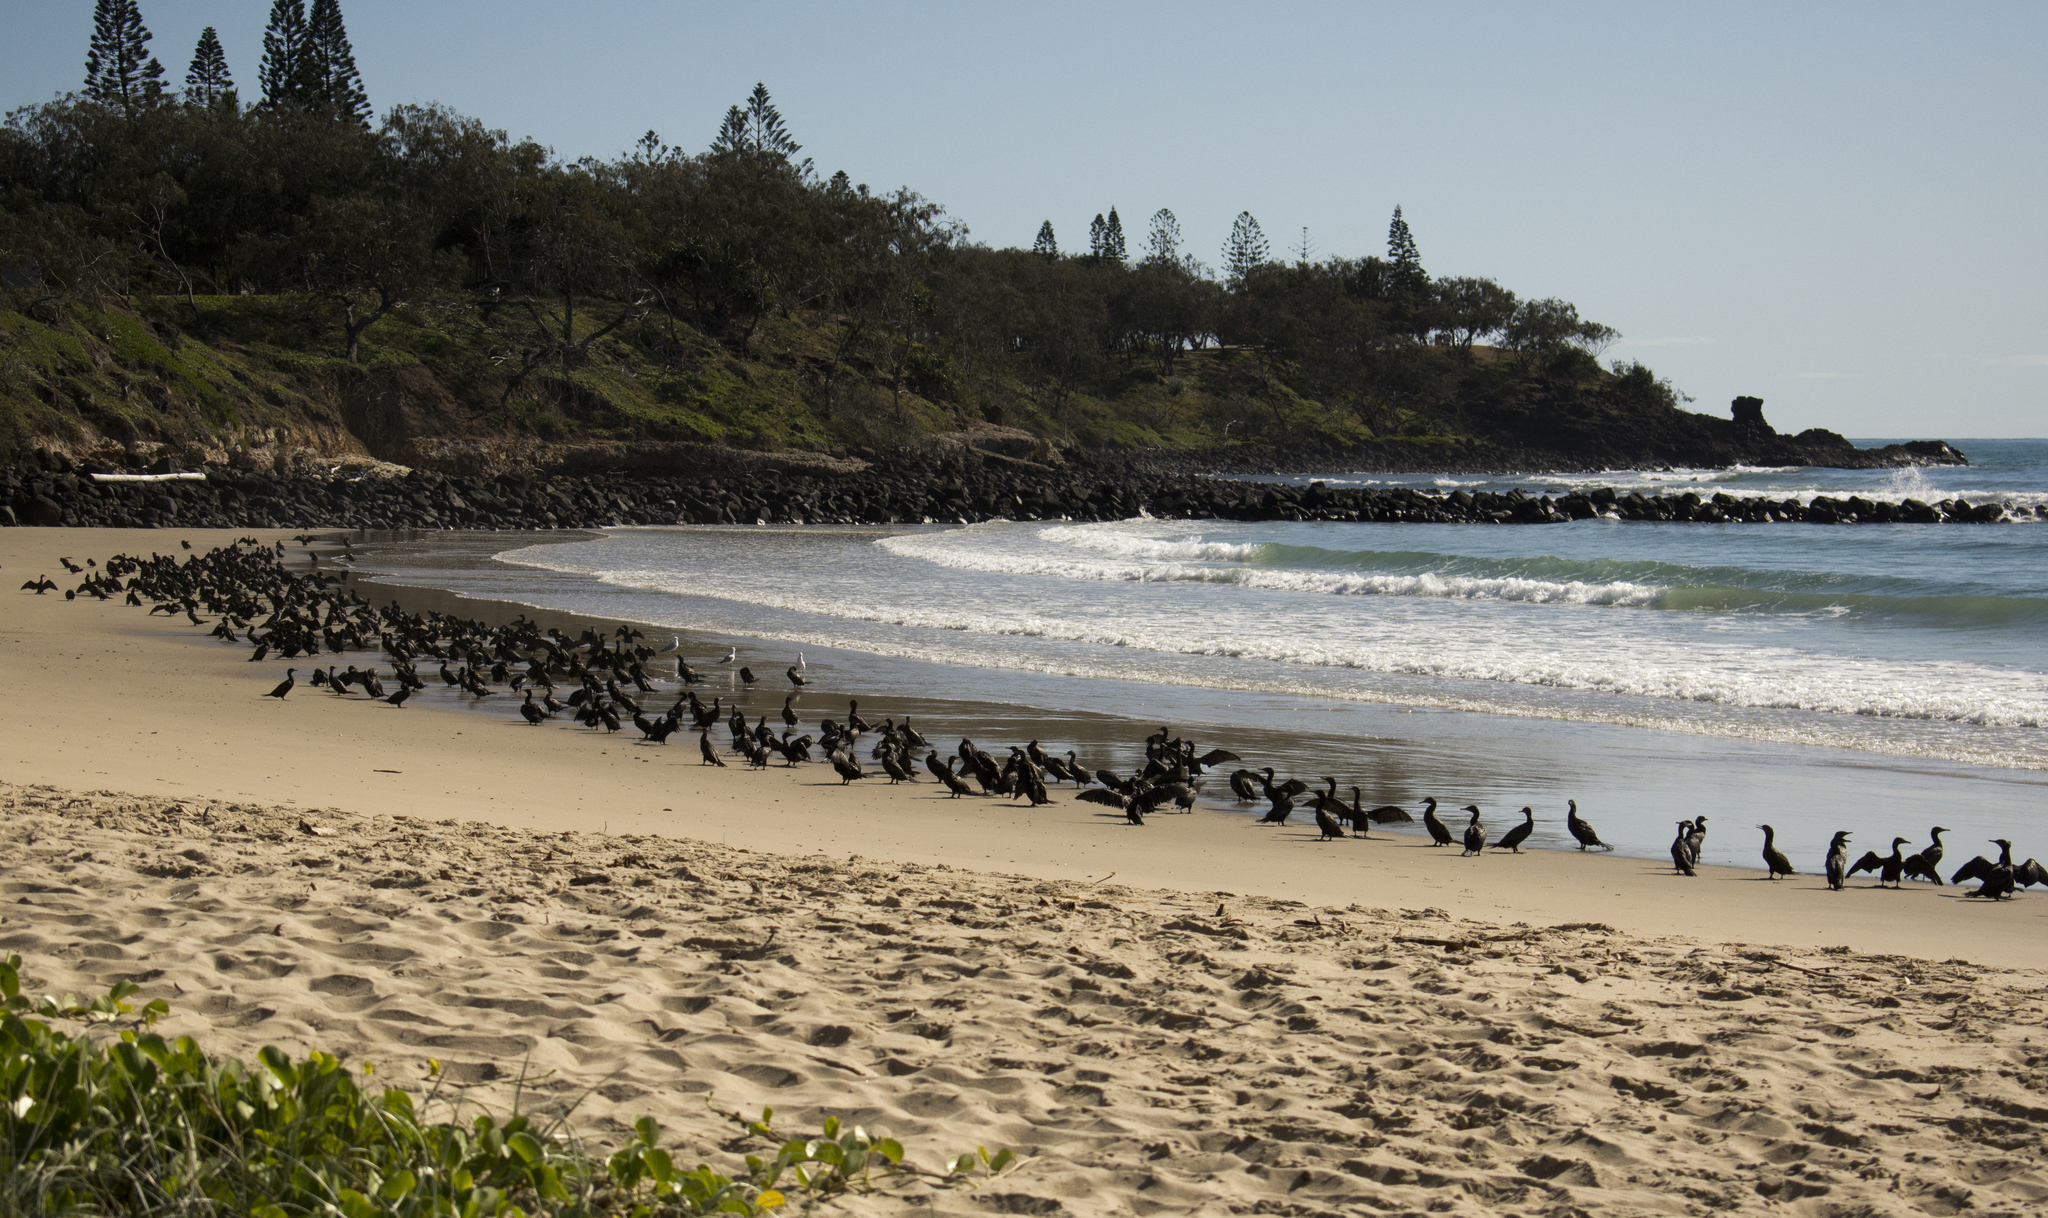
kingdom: Animalia
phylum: Chordata
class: Aves
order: Suliformes
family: Phalacrocoracidae
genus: Phalacrocorax
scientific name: Phalacrocorax sulcirostris
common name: Little black cormorant
